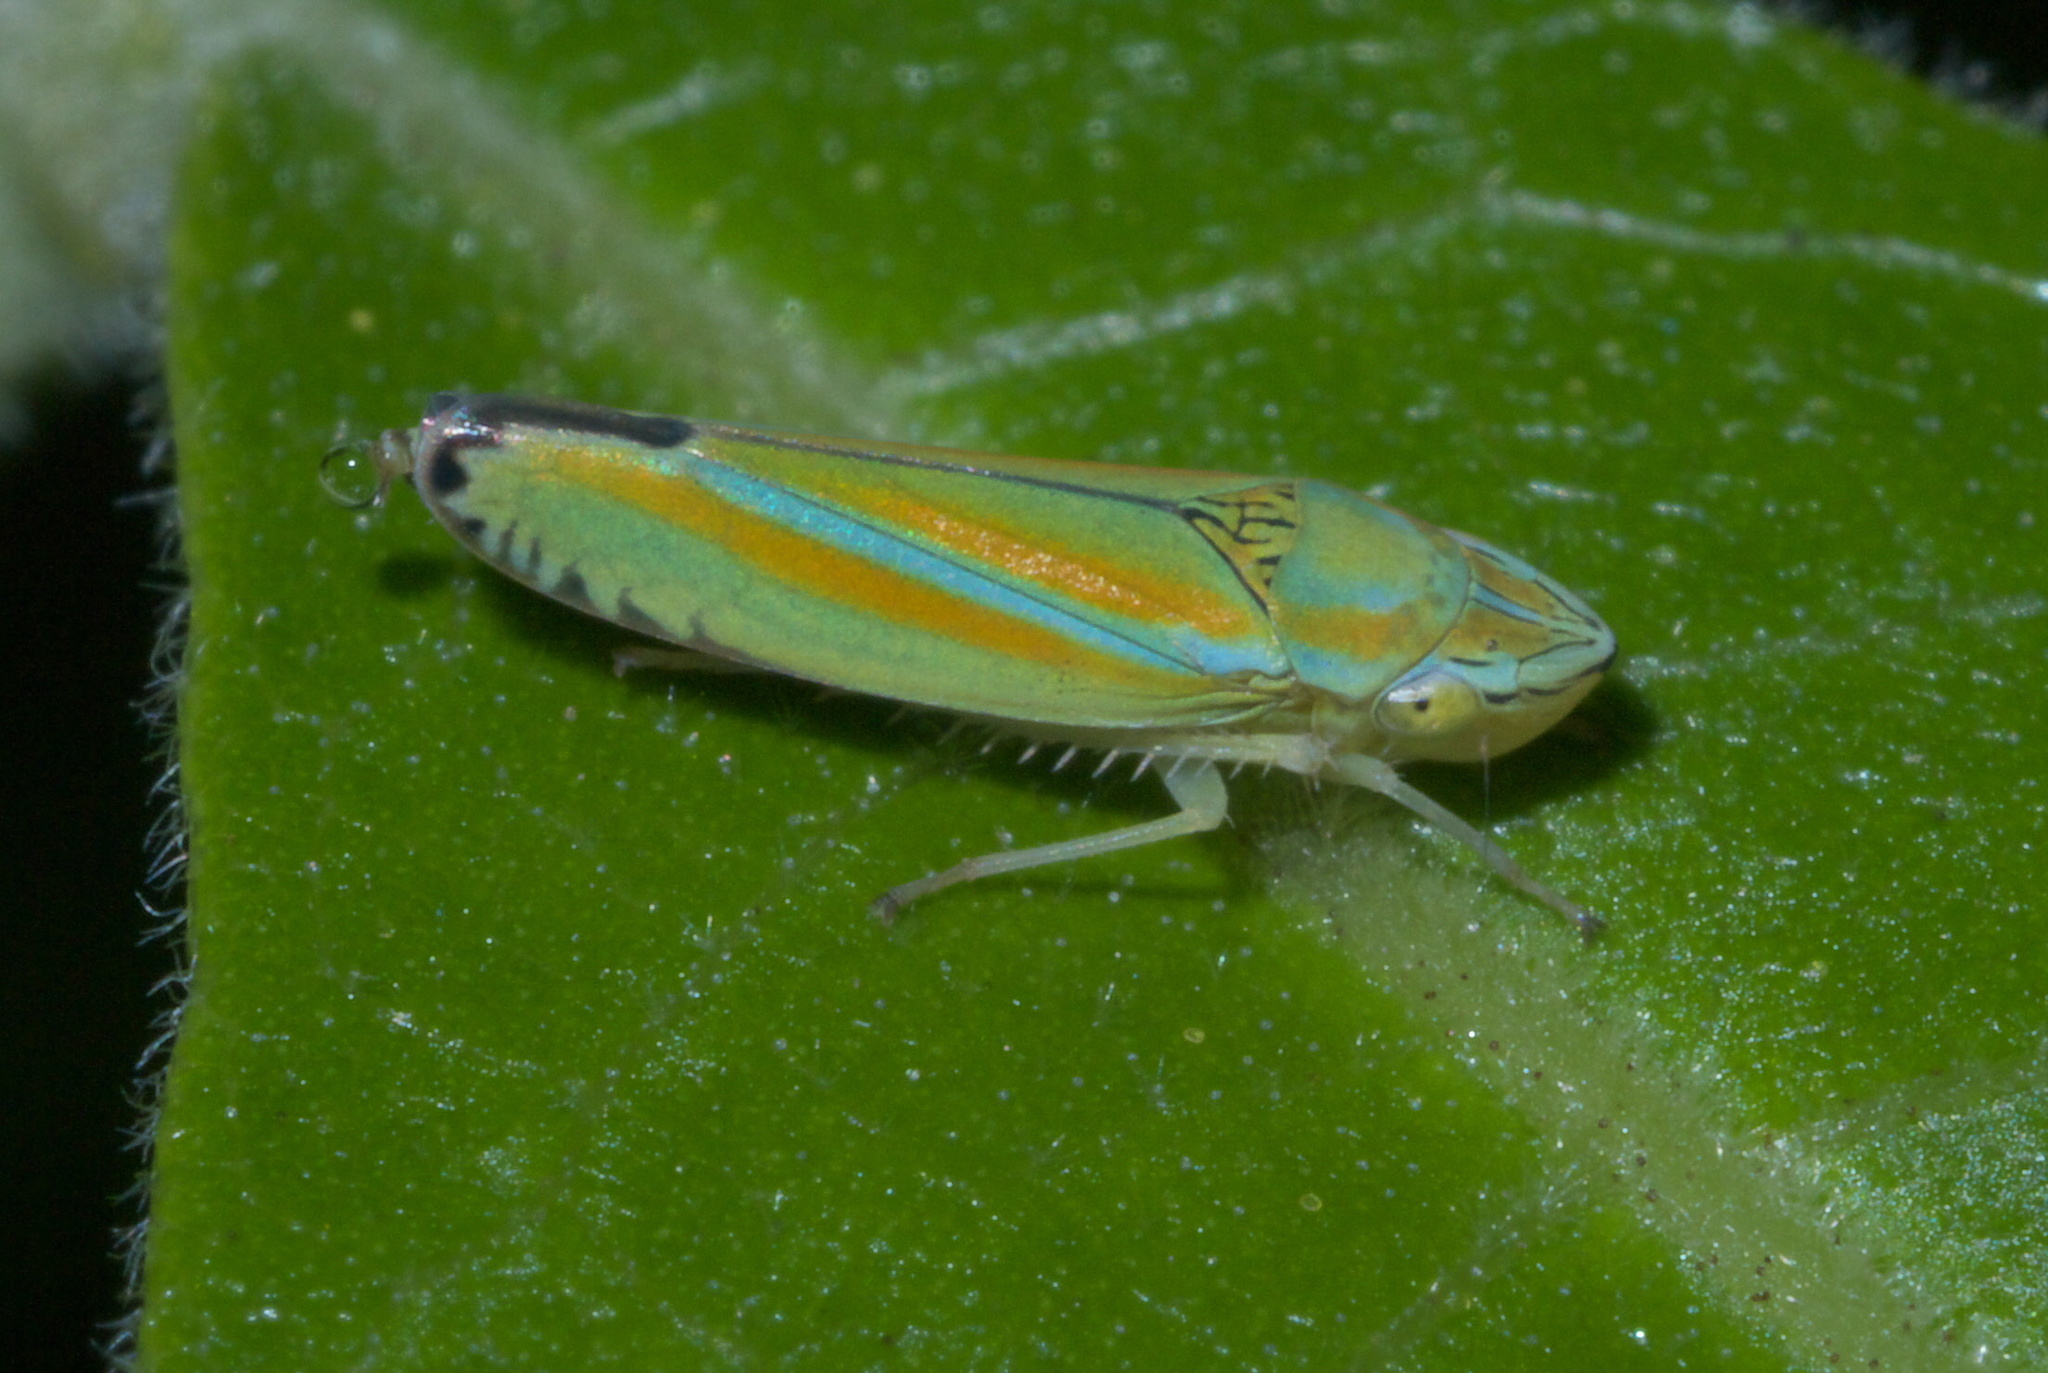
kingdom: Animalia
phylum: Arthropoda
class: Insecta
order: Hemiptera
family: Cicadellidae
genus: Graphocephala
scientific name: Graphocephala versuta
